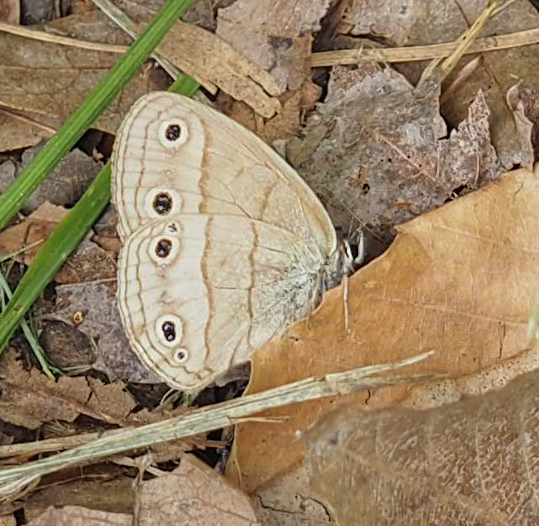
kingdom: Animalia
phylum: Arthropoda
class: Insecta
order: Lepidoptera
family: Nymphalidae
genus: Euptychia
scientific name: Euptychia cymela
